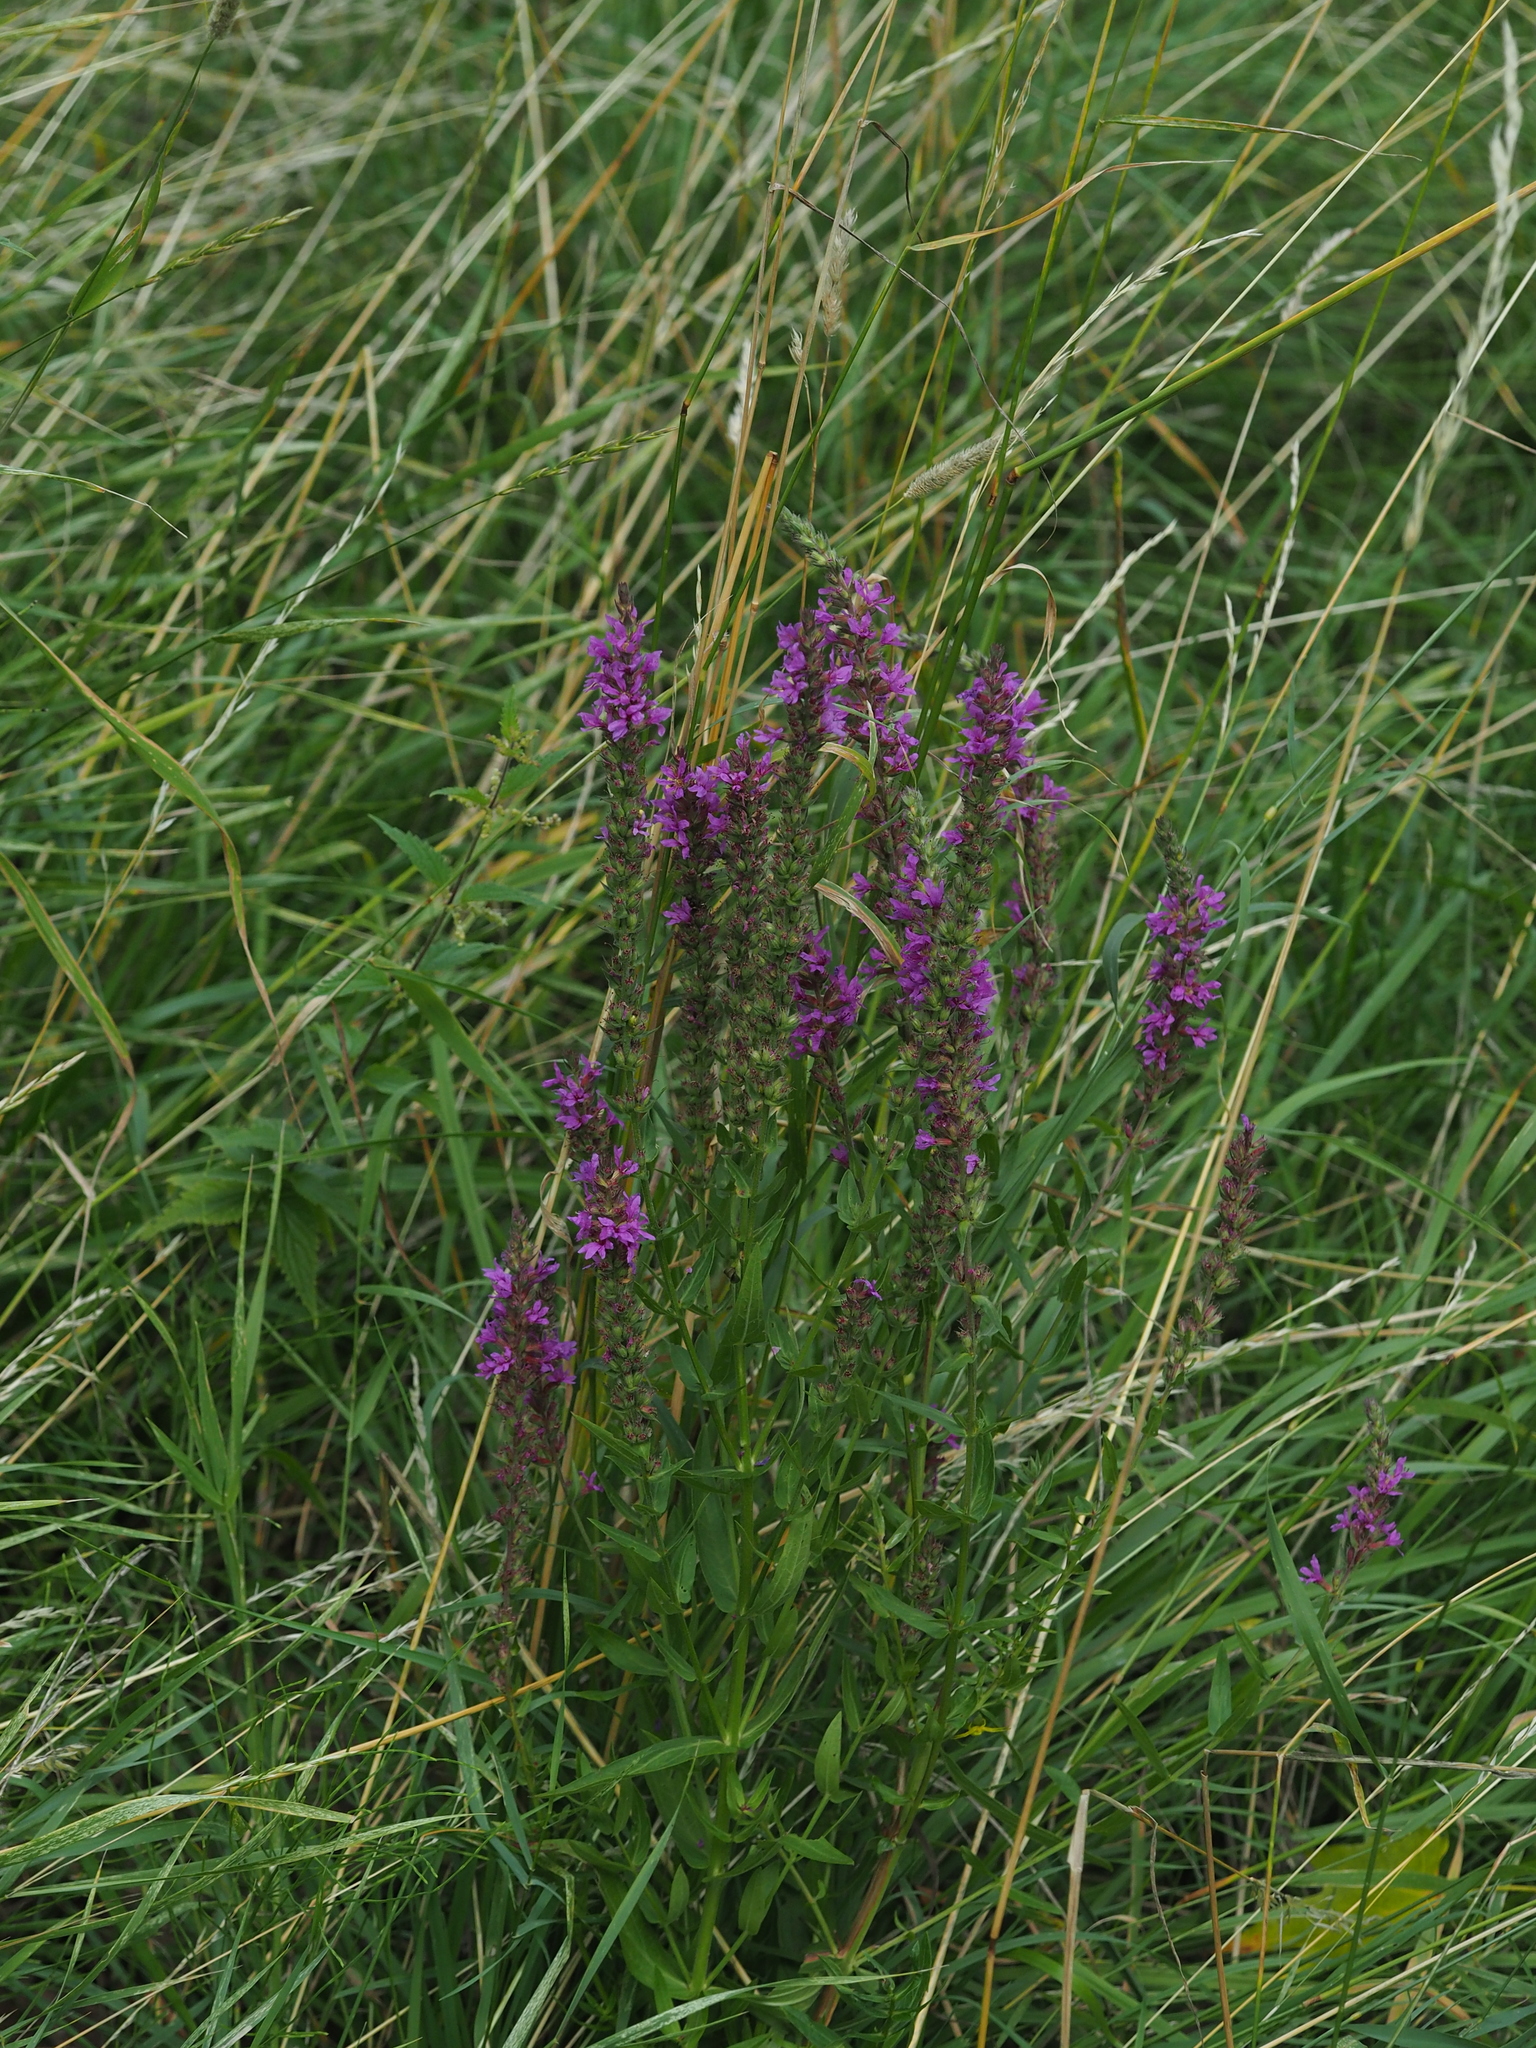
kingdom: Plantae
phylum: Tracheophyta
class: Magnoliopsida
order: Myrtales
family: Lythraceae
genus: Lythrum
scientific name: Lythrum salicaria
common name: Purple loosestrife
